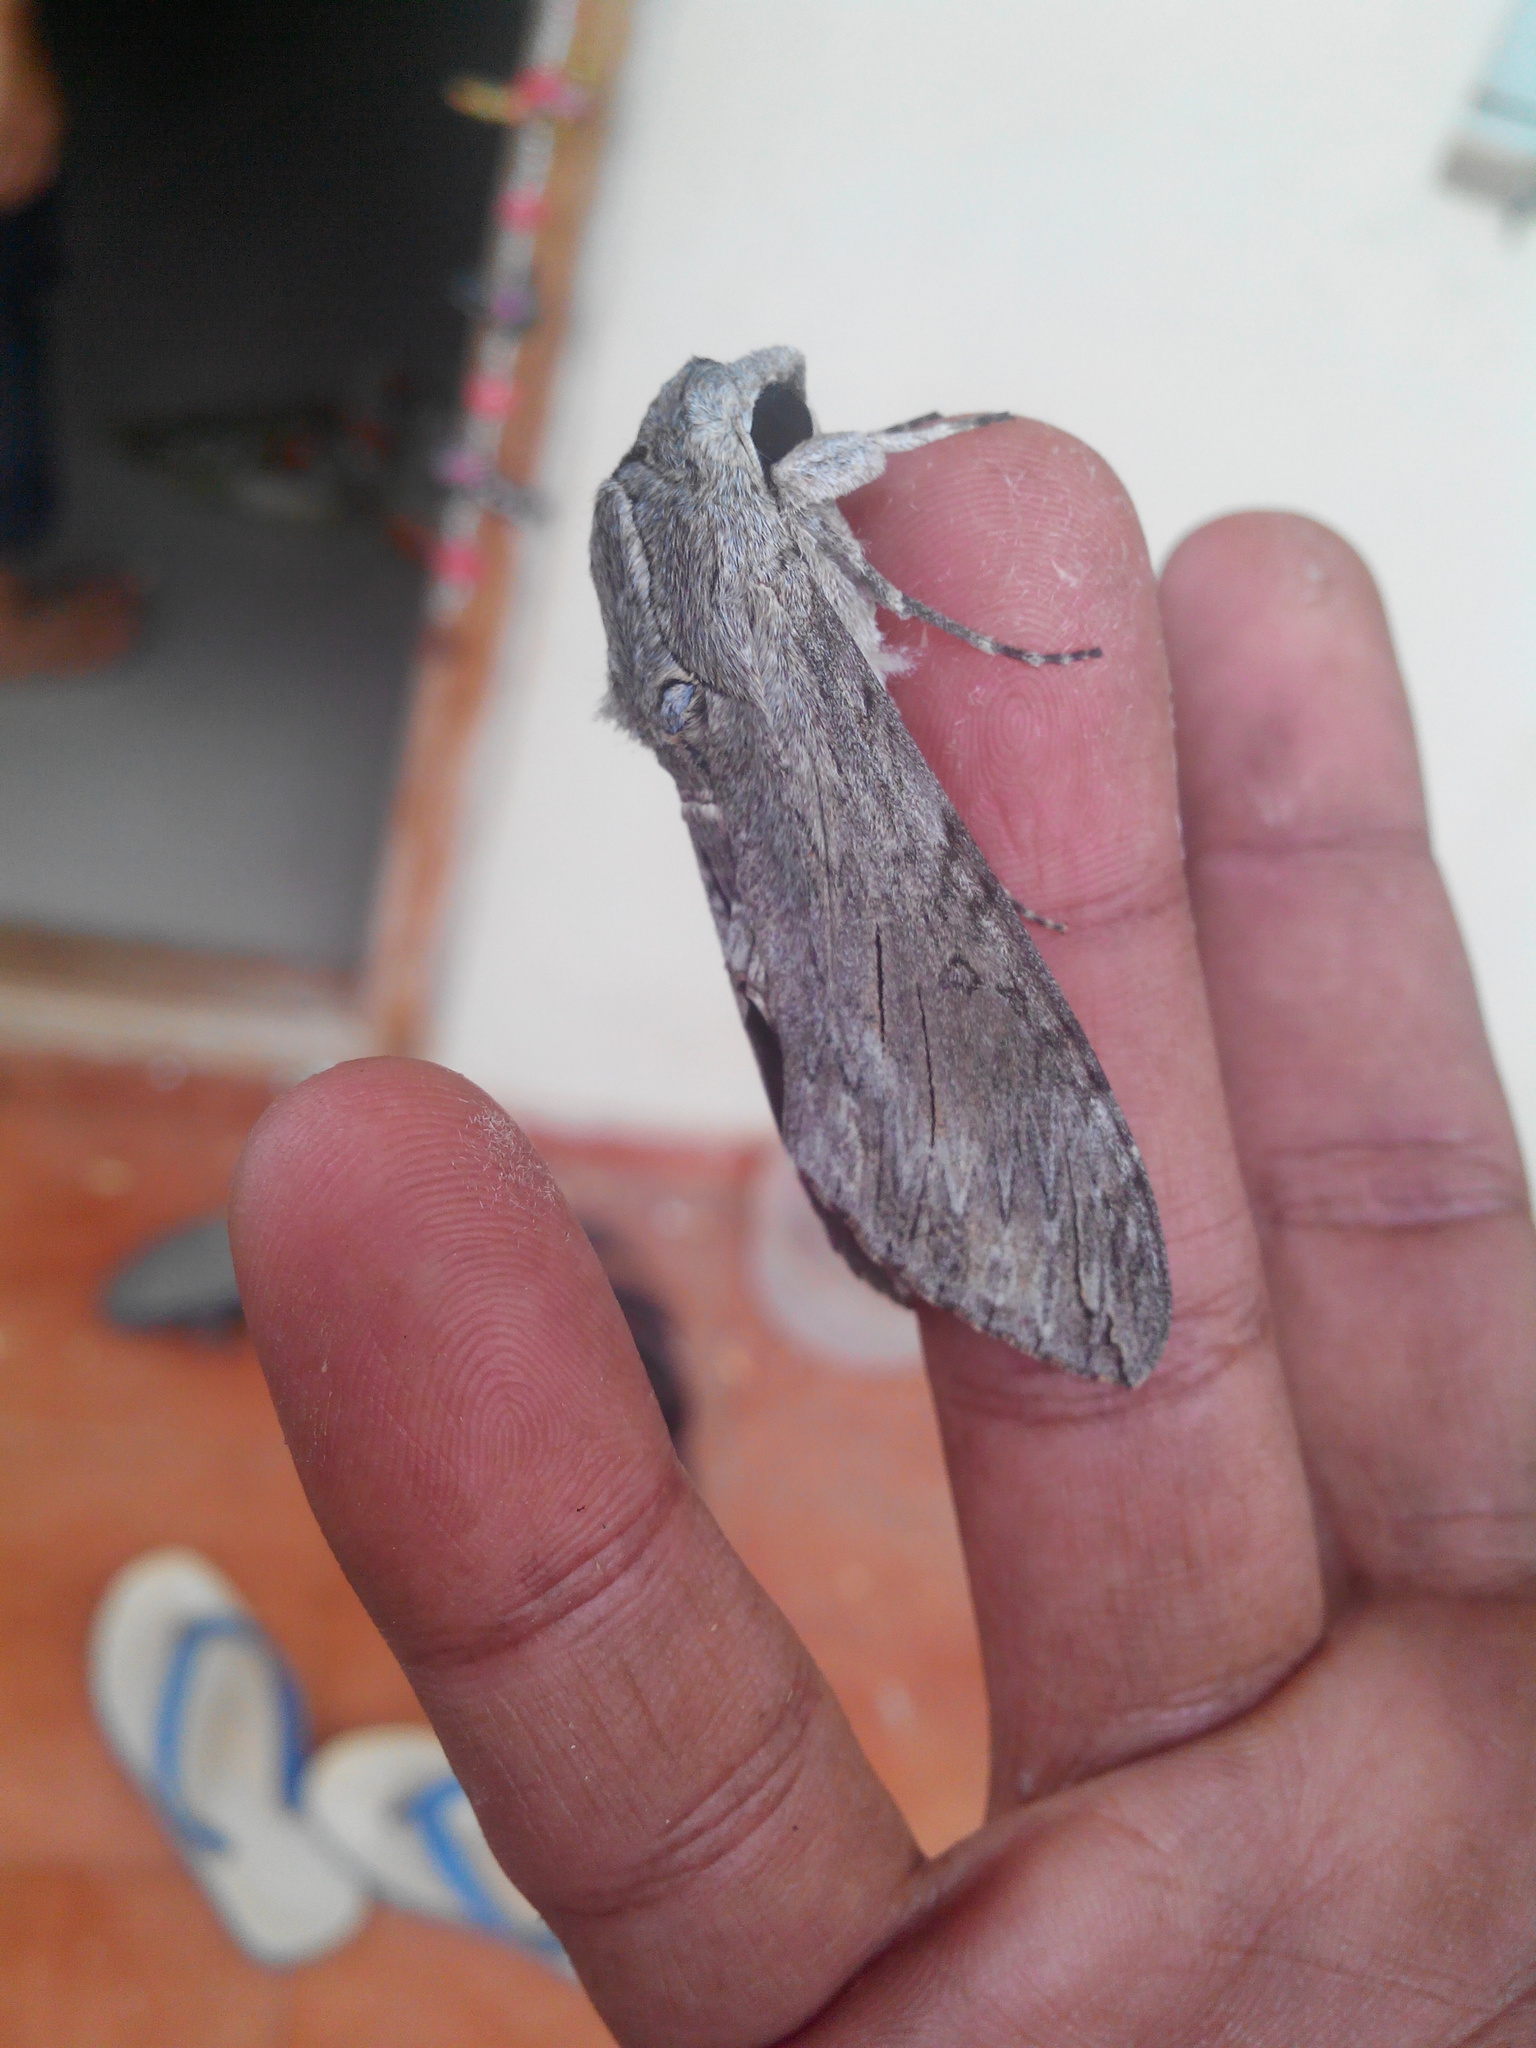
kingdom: Animalia
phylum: Arthropoda
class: Insecta
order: Lepidoptera
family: Sphingidae
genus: Agrius
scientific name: Agrius convolvuli
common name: Convolvulus hawkmoth
